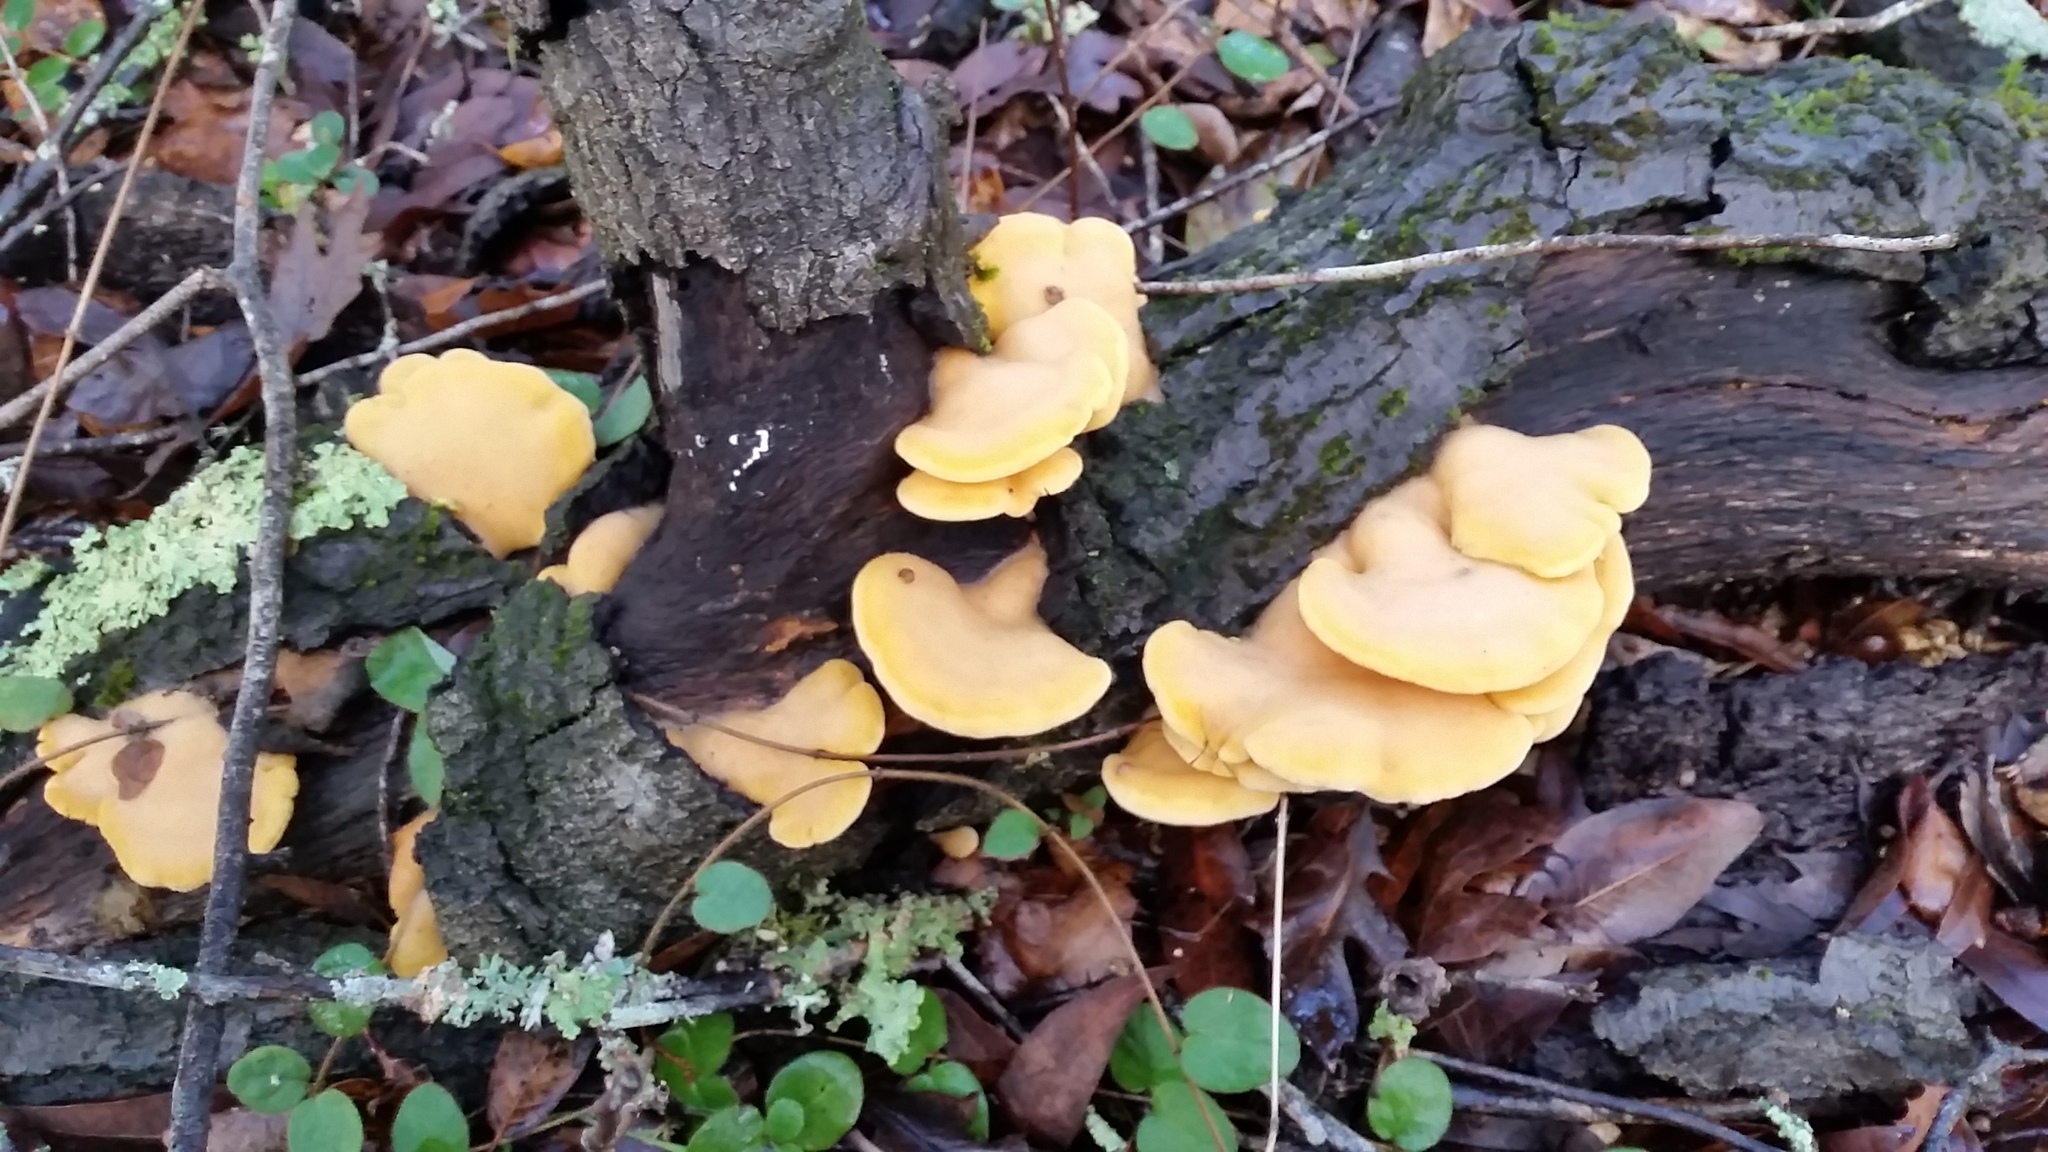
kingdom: Fungi
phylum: Basidiomycota
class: Agaricomycetes
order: Agaricales
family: Phyllotopsidaceae
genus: Phyllotopsis
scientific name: Phyllotopsis nidulans
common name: Orange mock oyster
